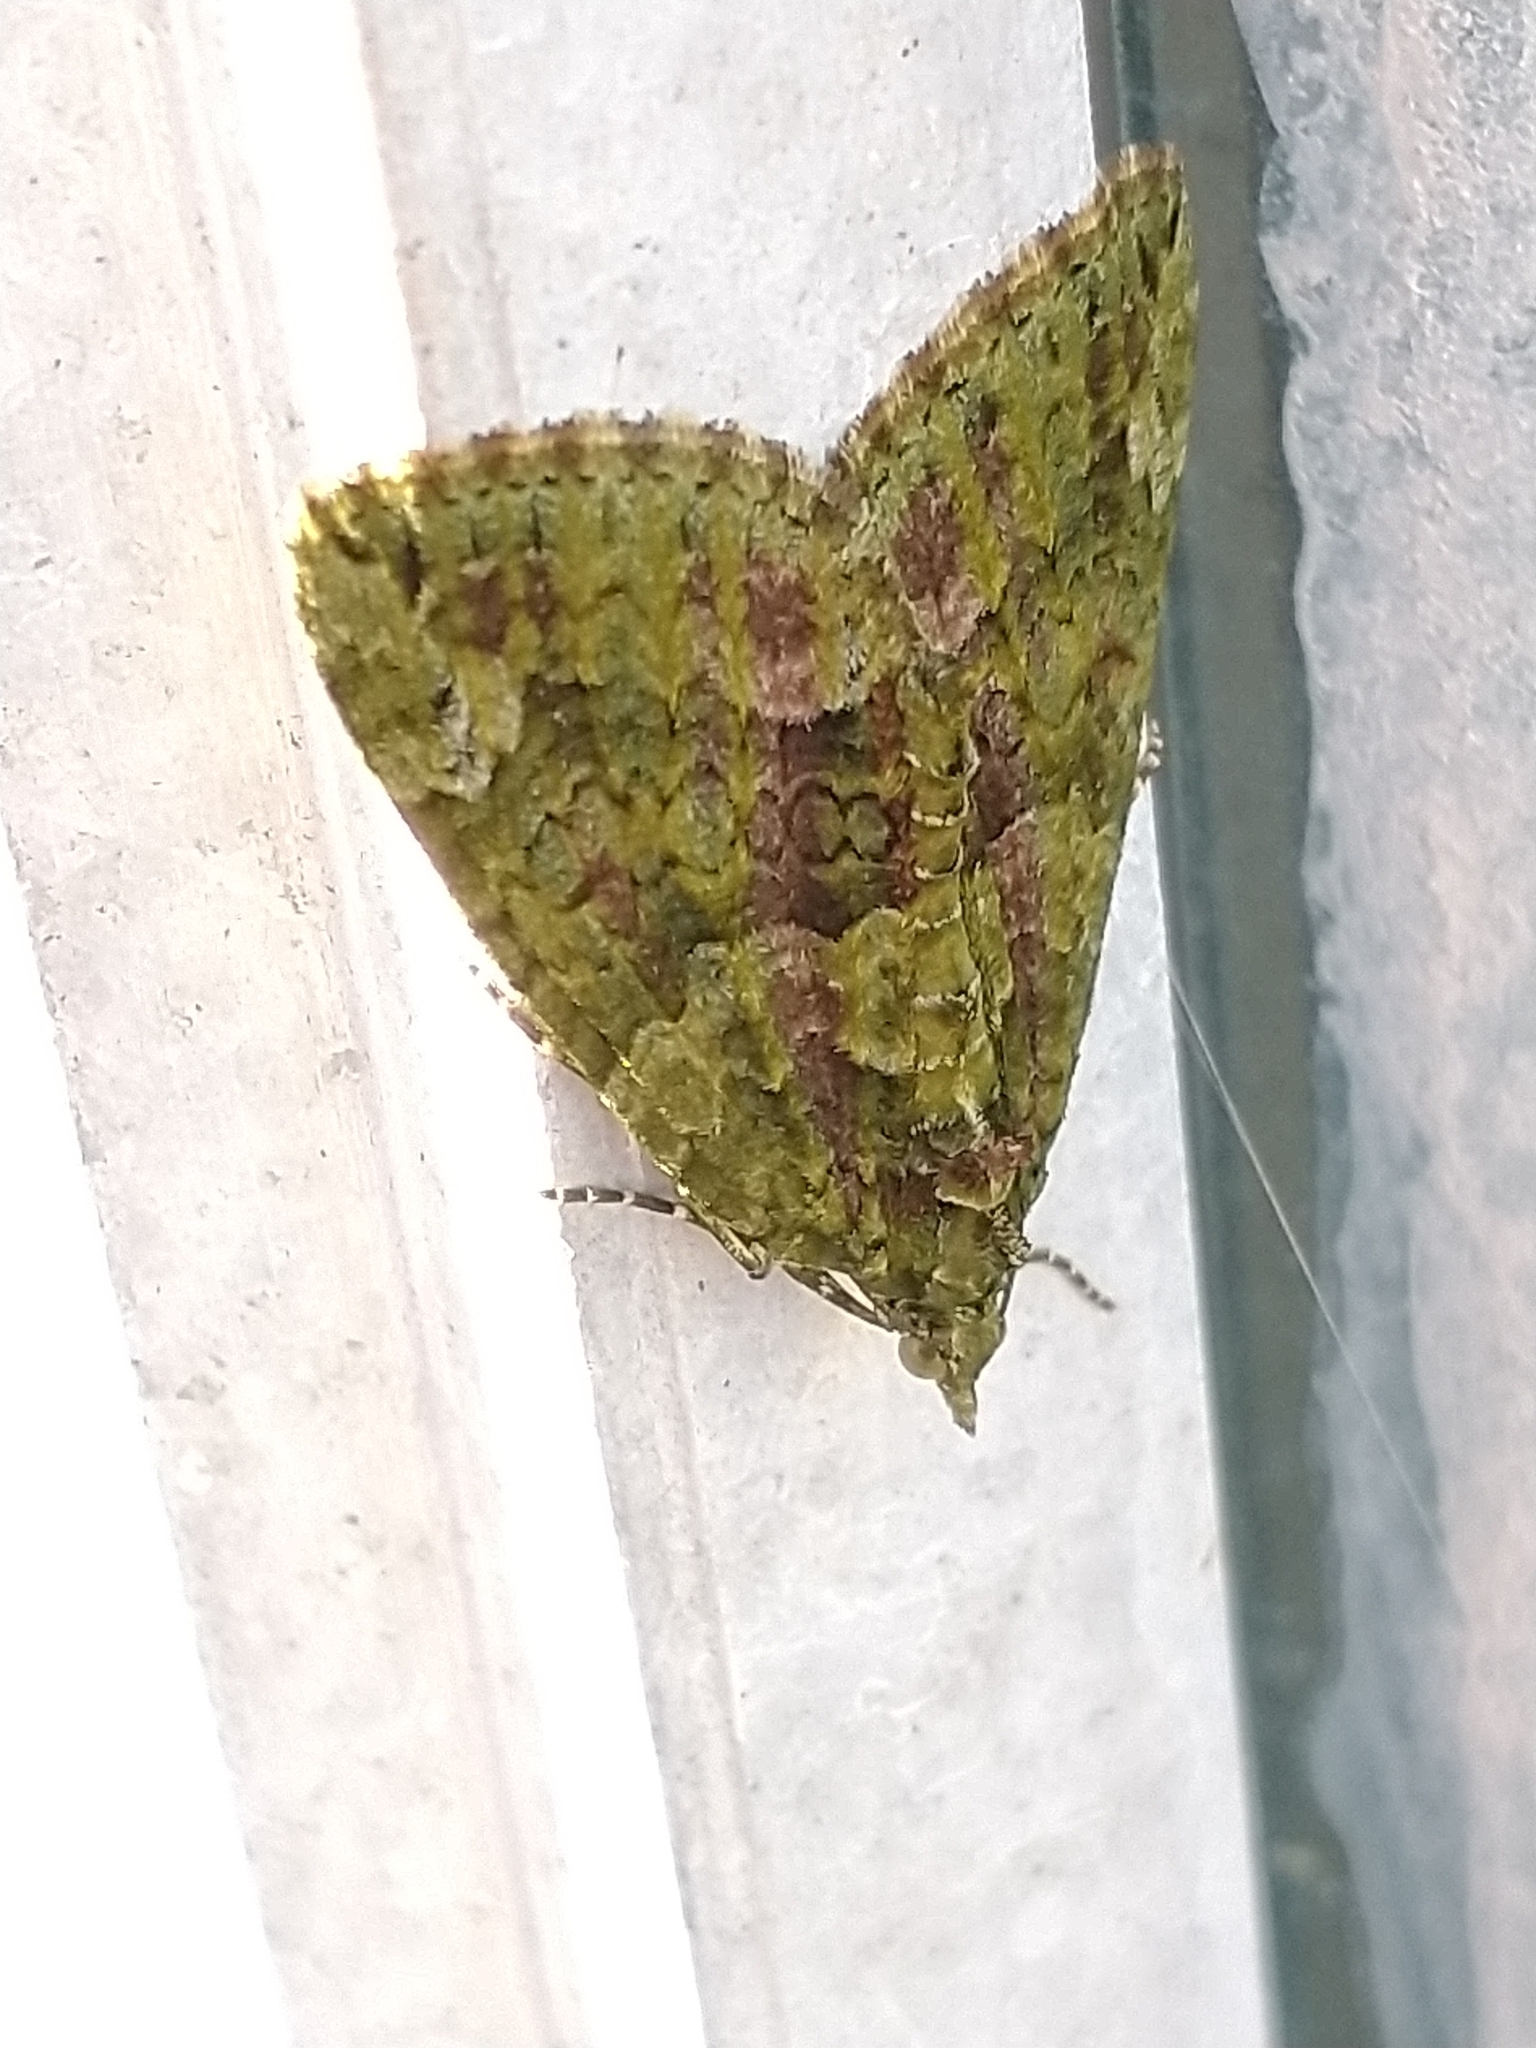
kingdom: Animalia
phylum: Arthropoda
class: Insecta
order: Lepidoptera
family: Geometridae
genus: Chloroclysta
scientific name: Chloroclysta siterata
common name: Red-green carpet
